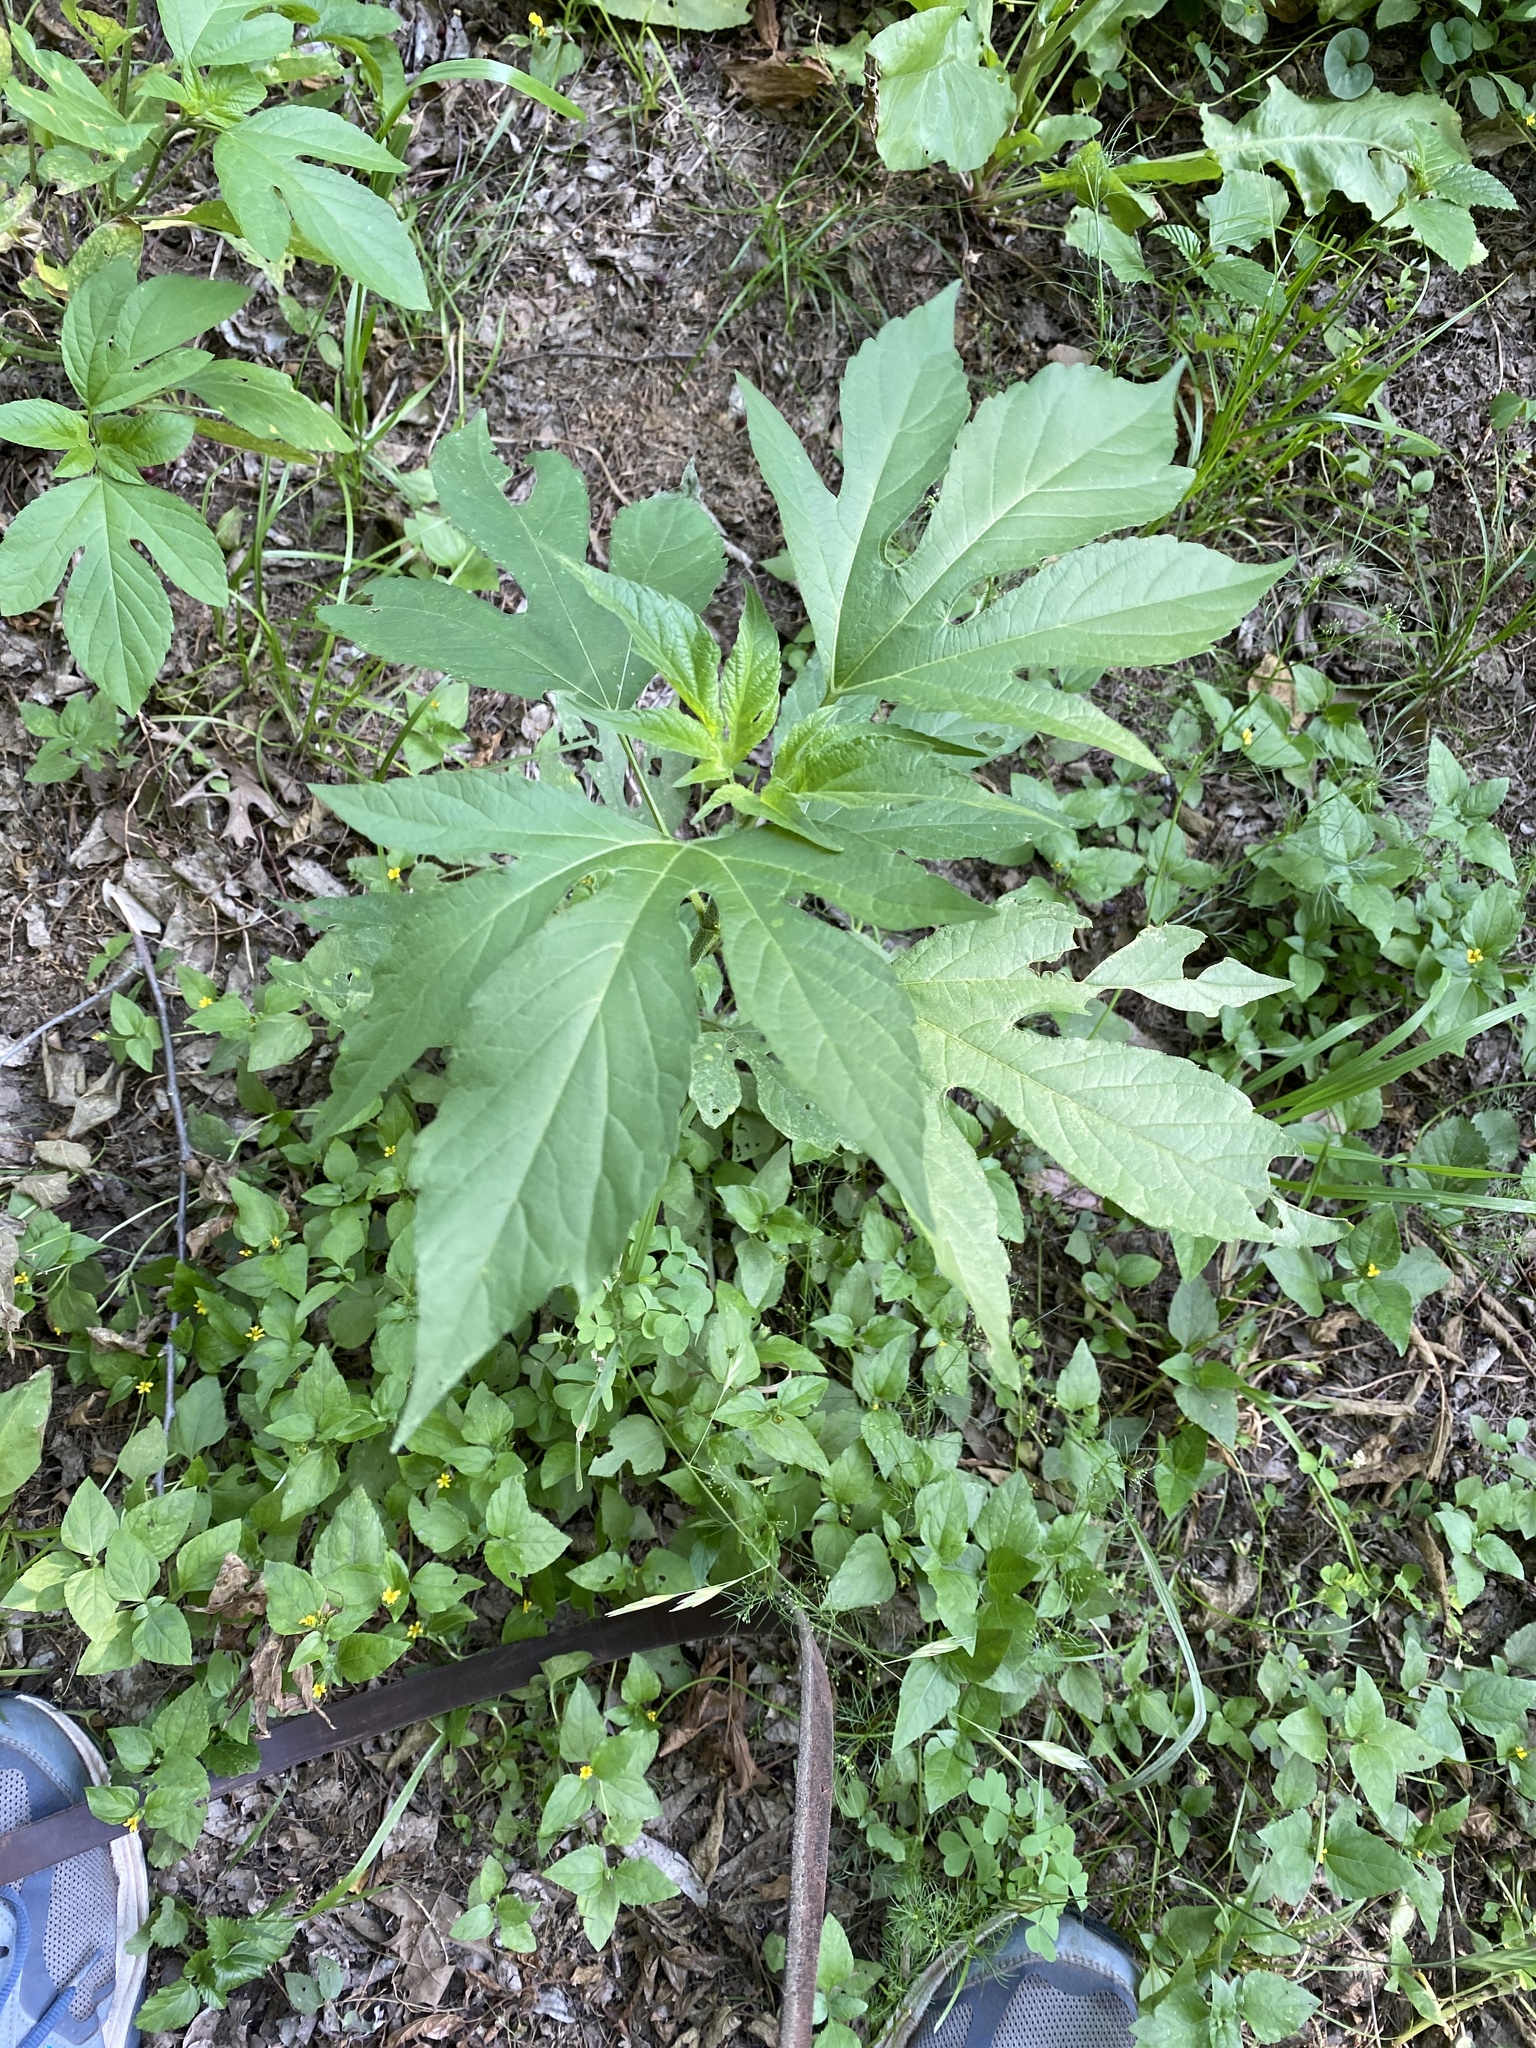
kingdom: Plantae
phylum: Tracheophyta
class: Magnoliopsida
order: Asterales
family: Asteraceae
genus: Ambrosia
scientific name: Ambrosia trifida
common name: Giant ragweed
